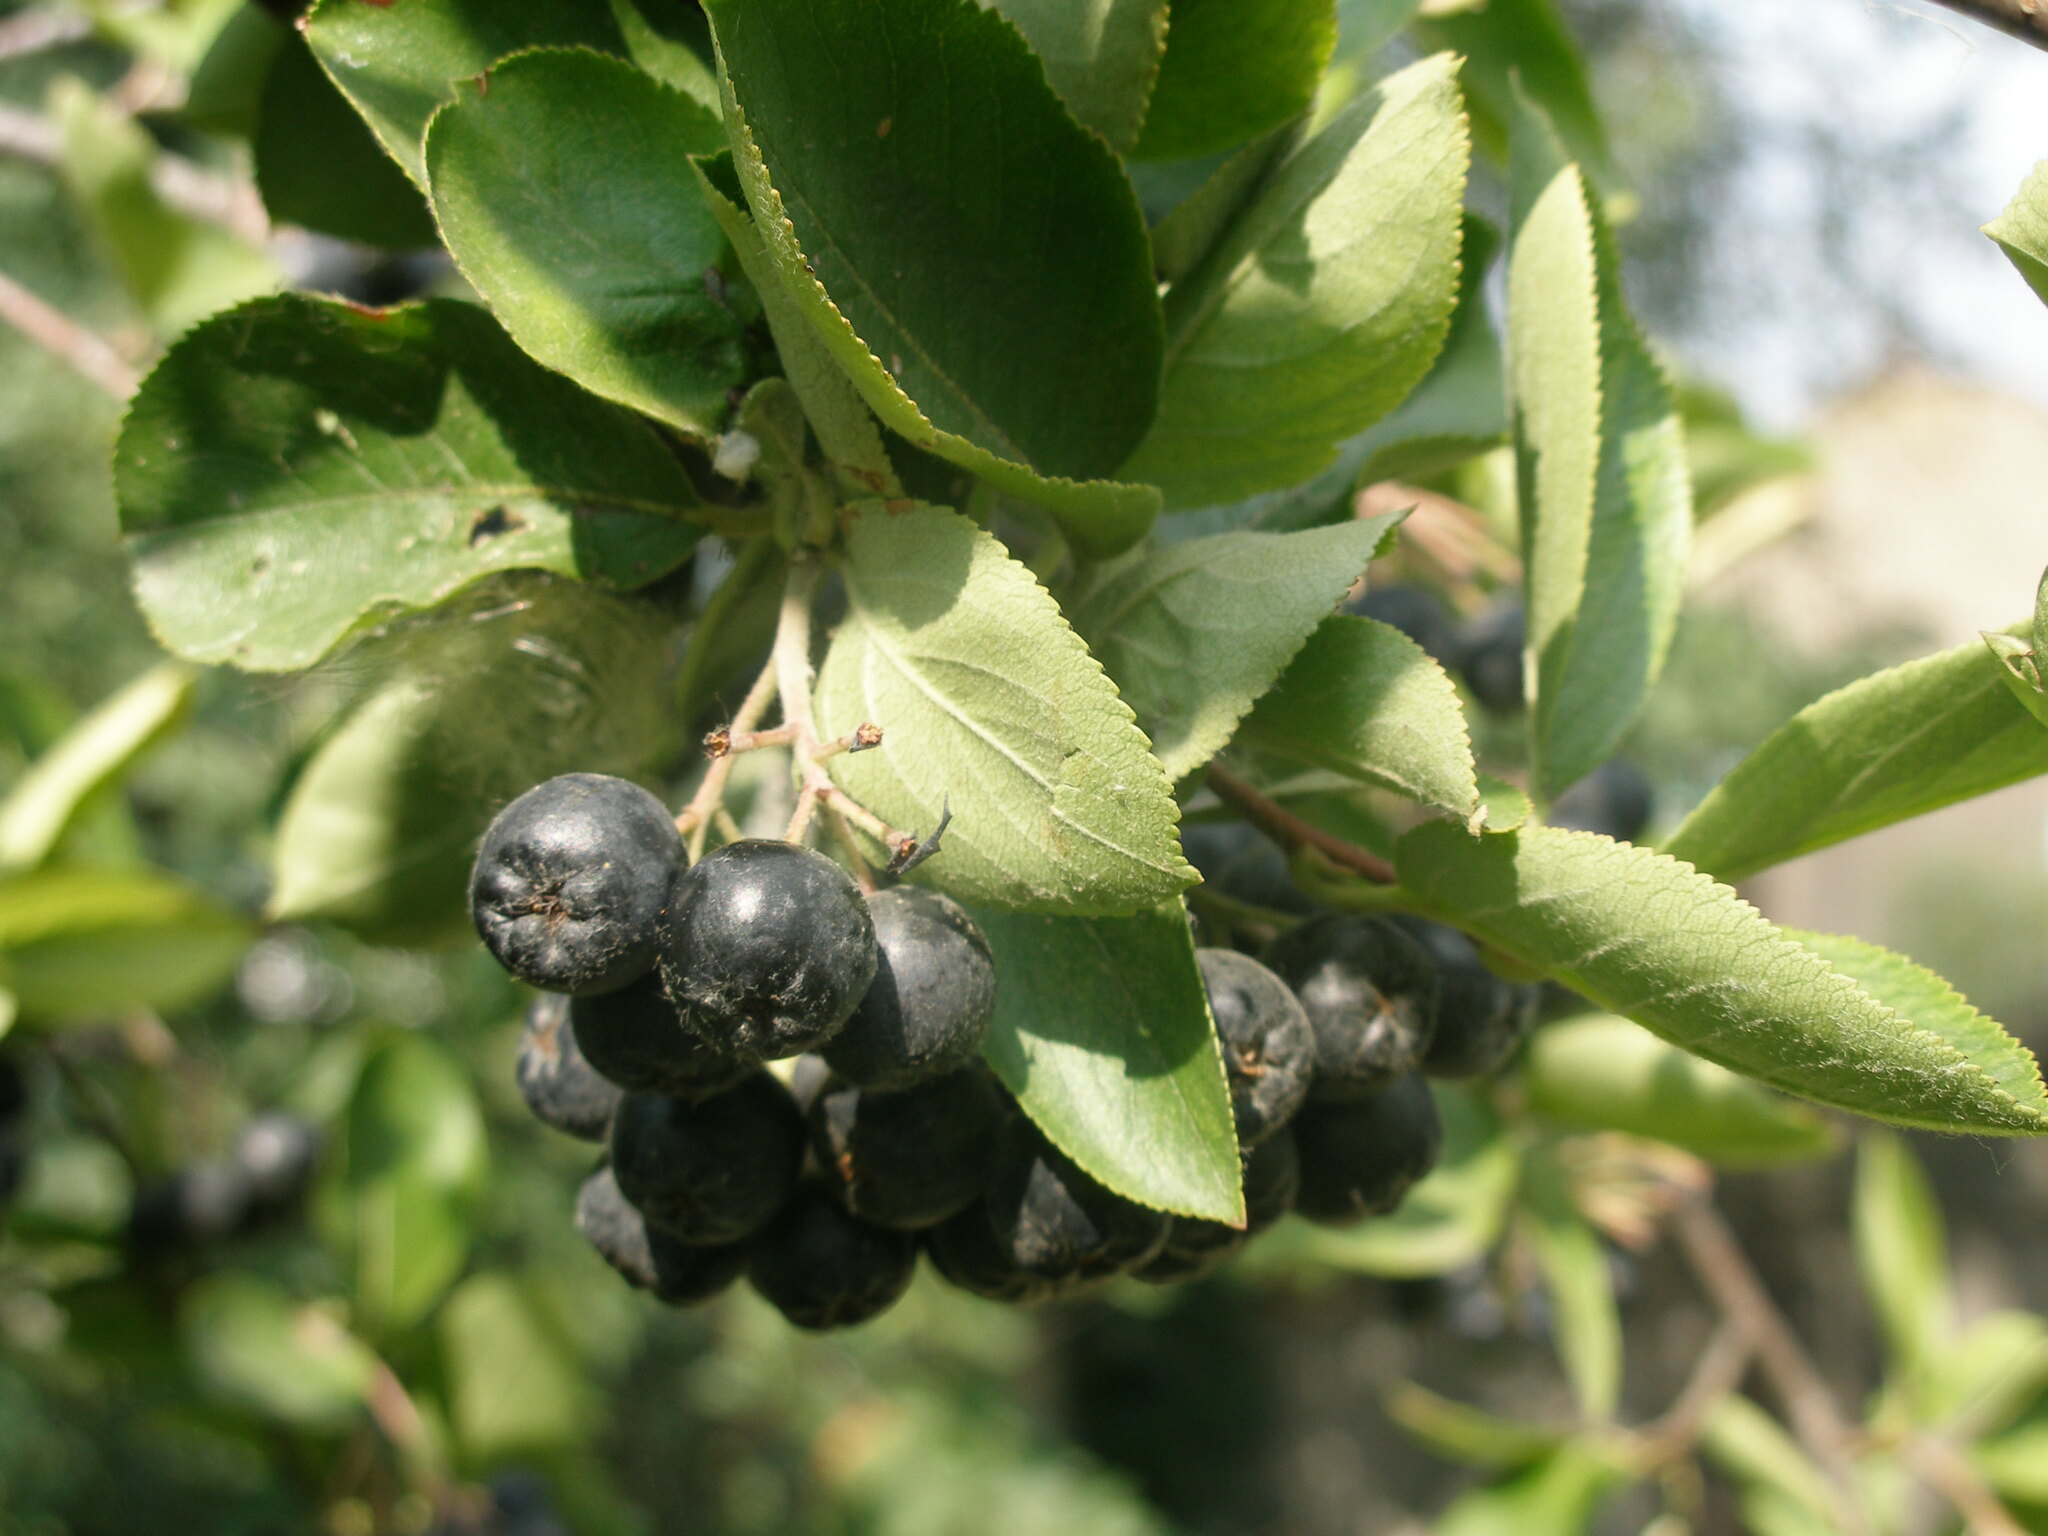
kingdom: Plantae
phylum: Tracheophyta
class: Magnoliopsida
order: Rosales
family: Rosaceae
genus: Sorbaronia
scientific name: Sorbaronia arsenii
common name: Arsène's mountain-ash
